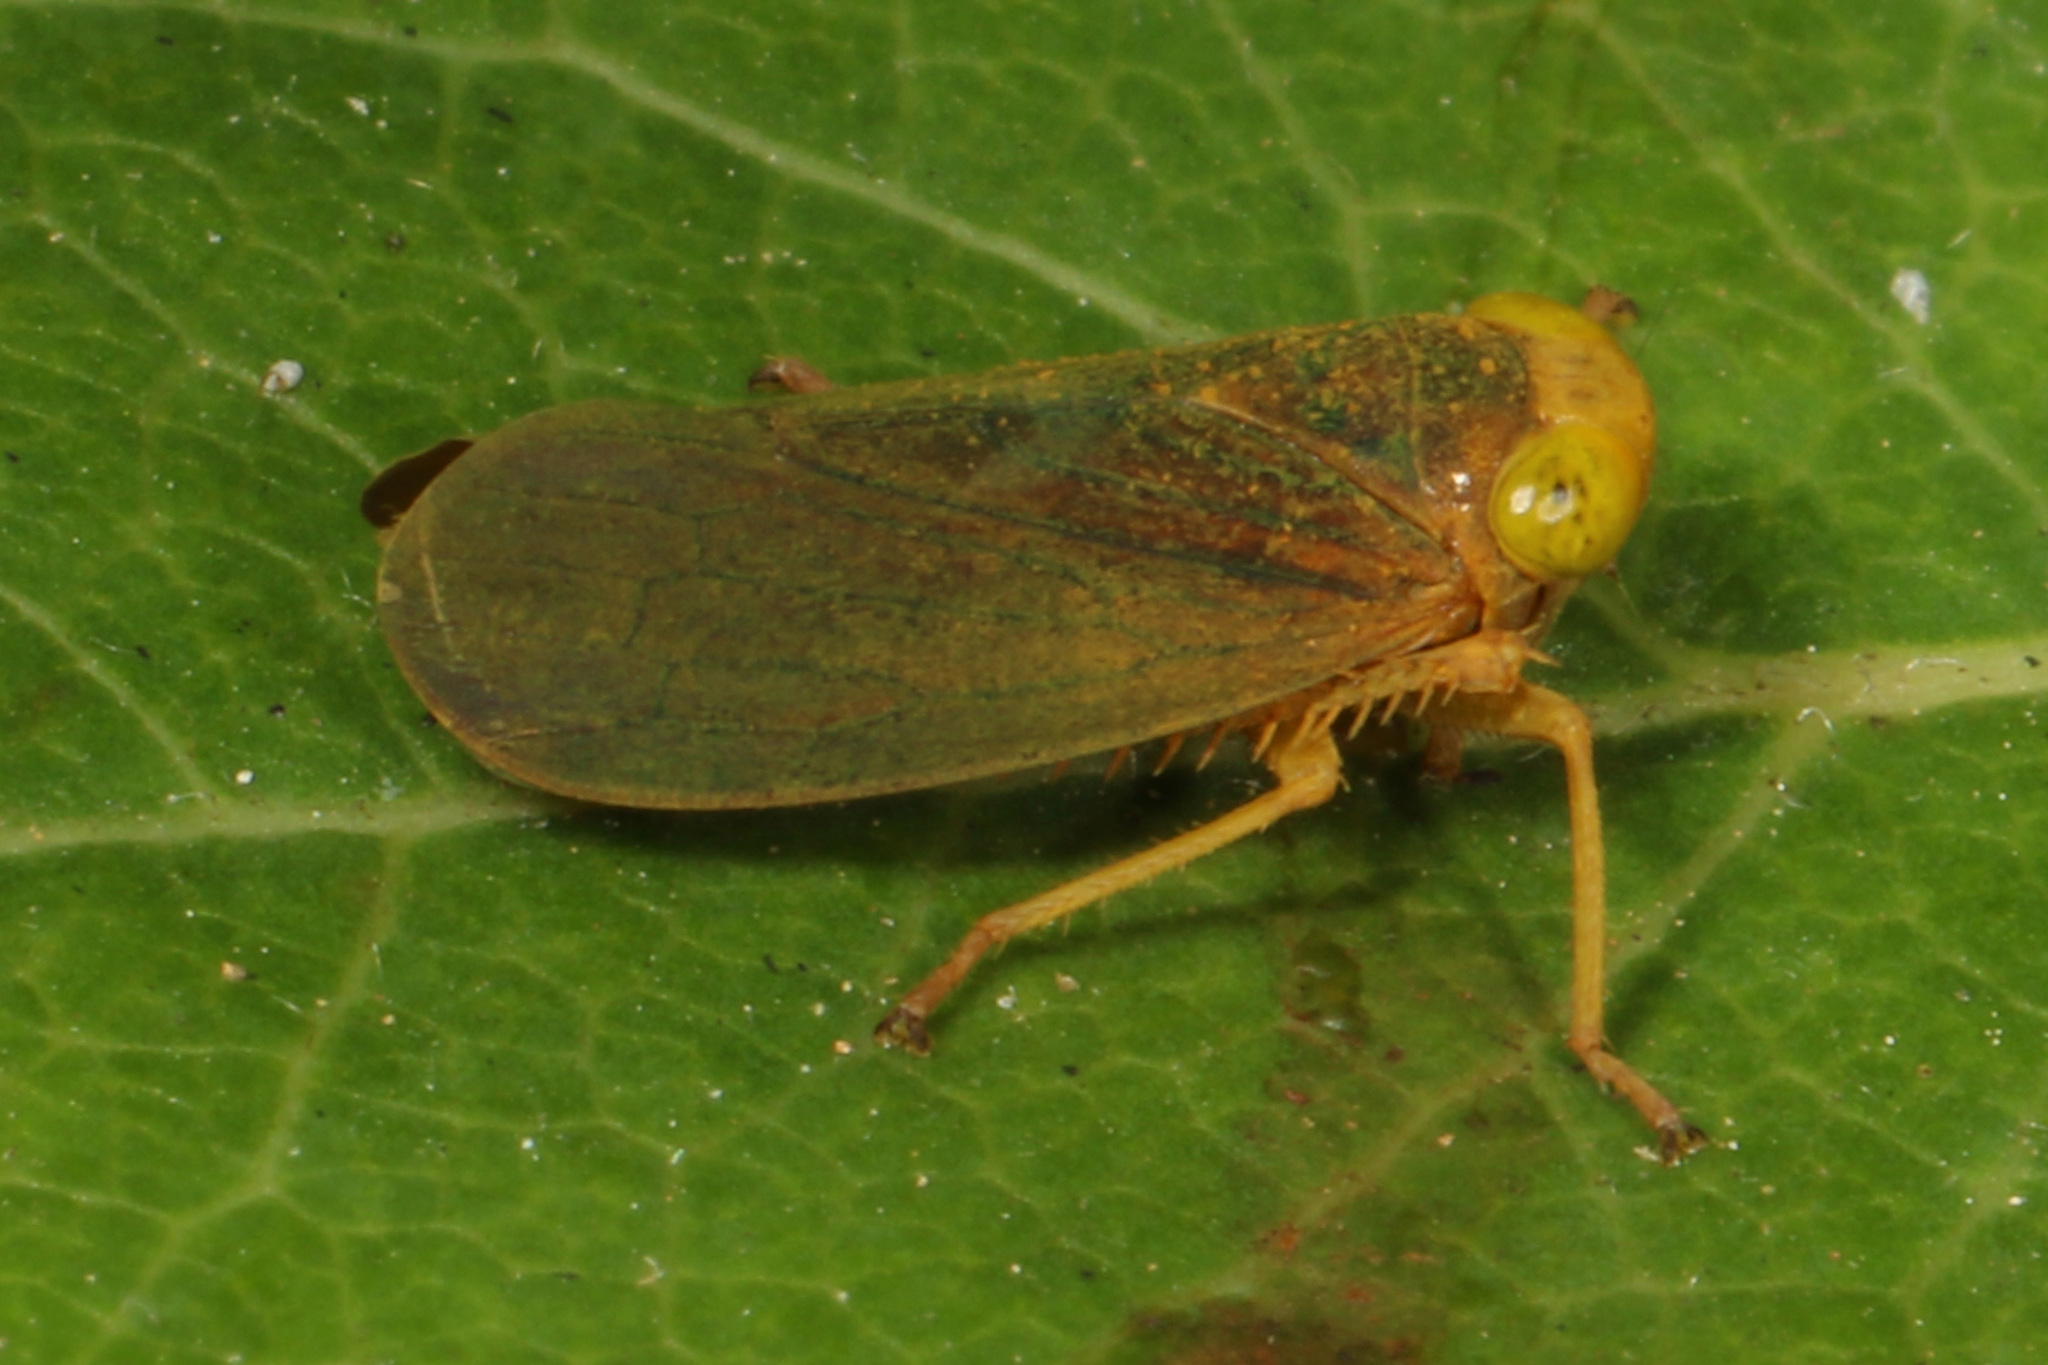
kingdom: Animalia
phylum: Arthropoda
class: Insecta
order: Hemiptera
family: Cicadellidae
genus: Jikradia
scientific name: Jikradia olitoria
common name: Coppery leafhopper
